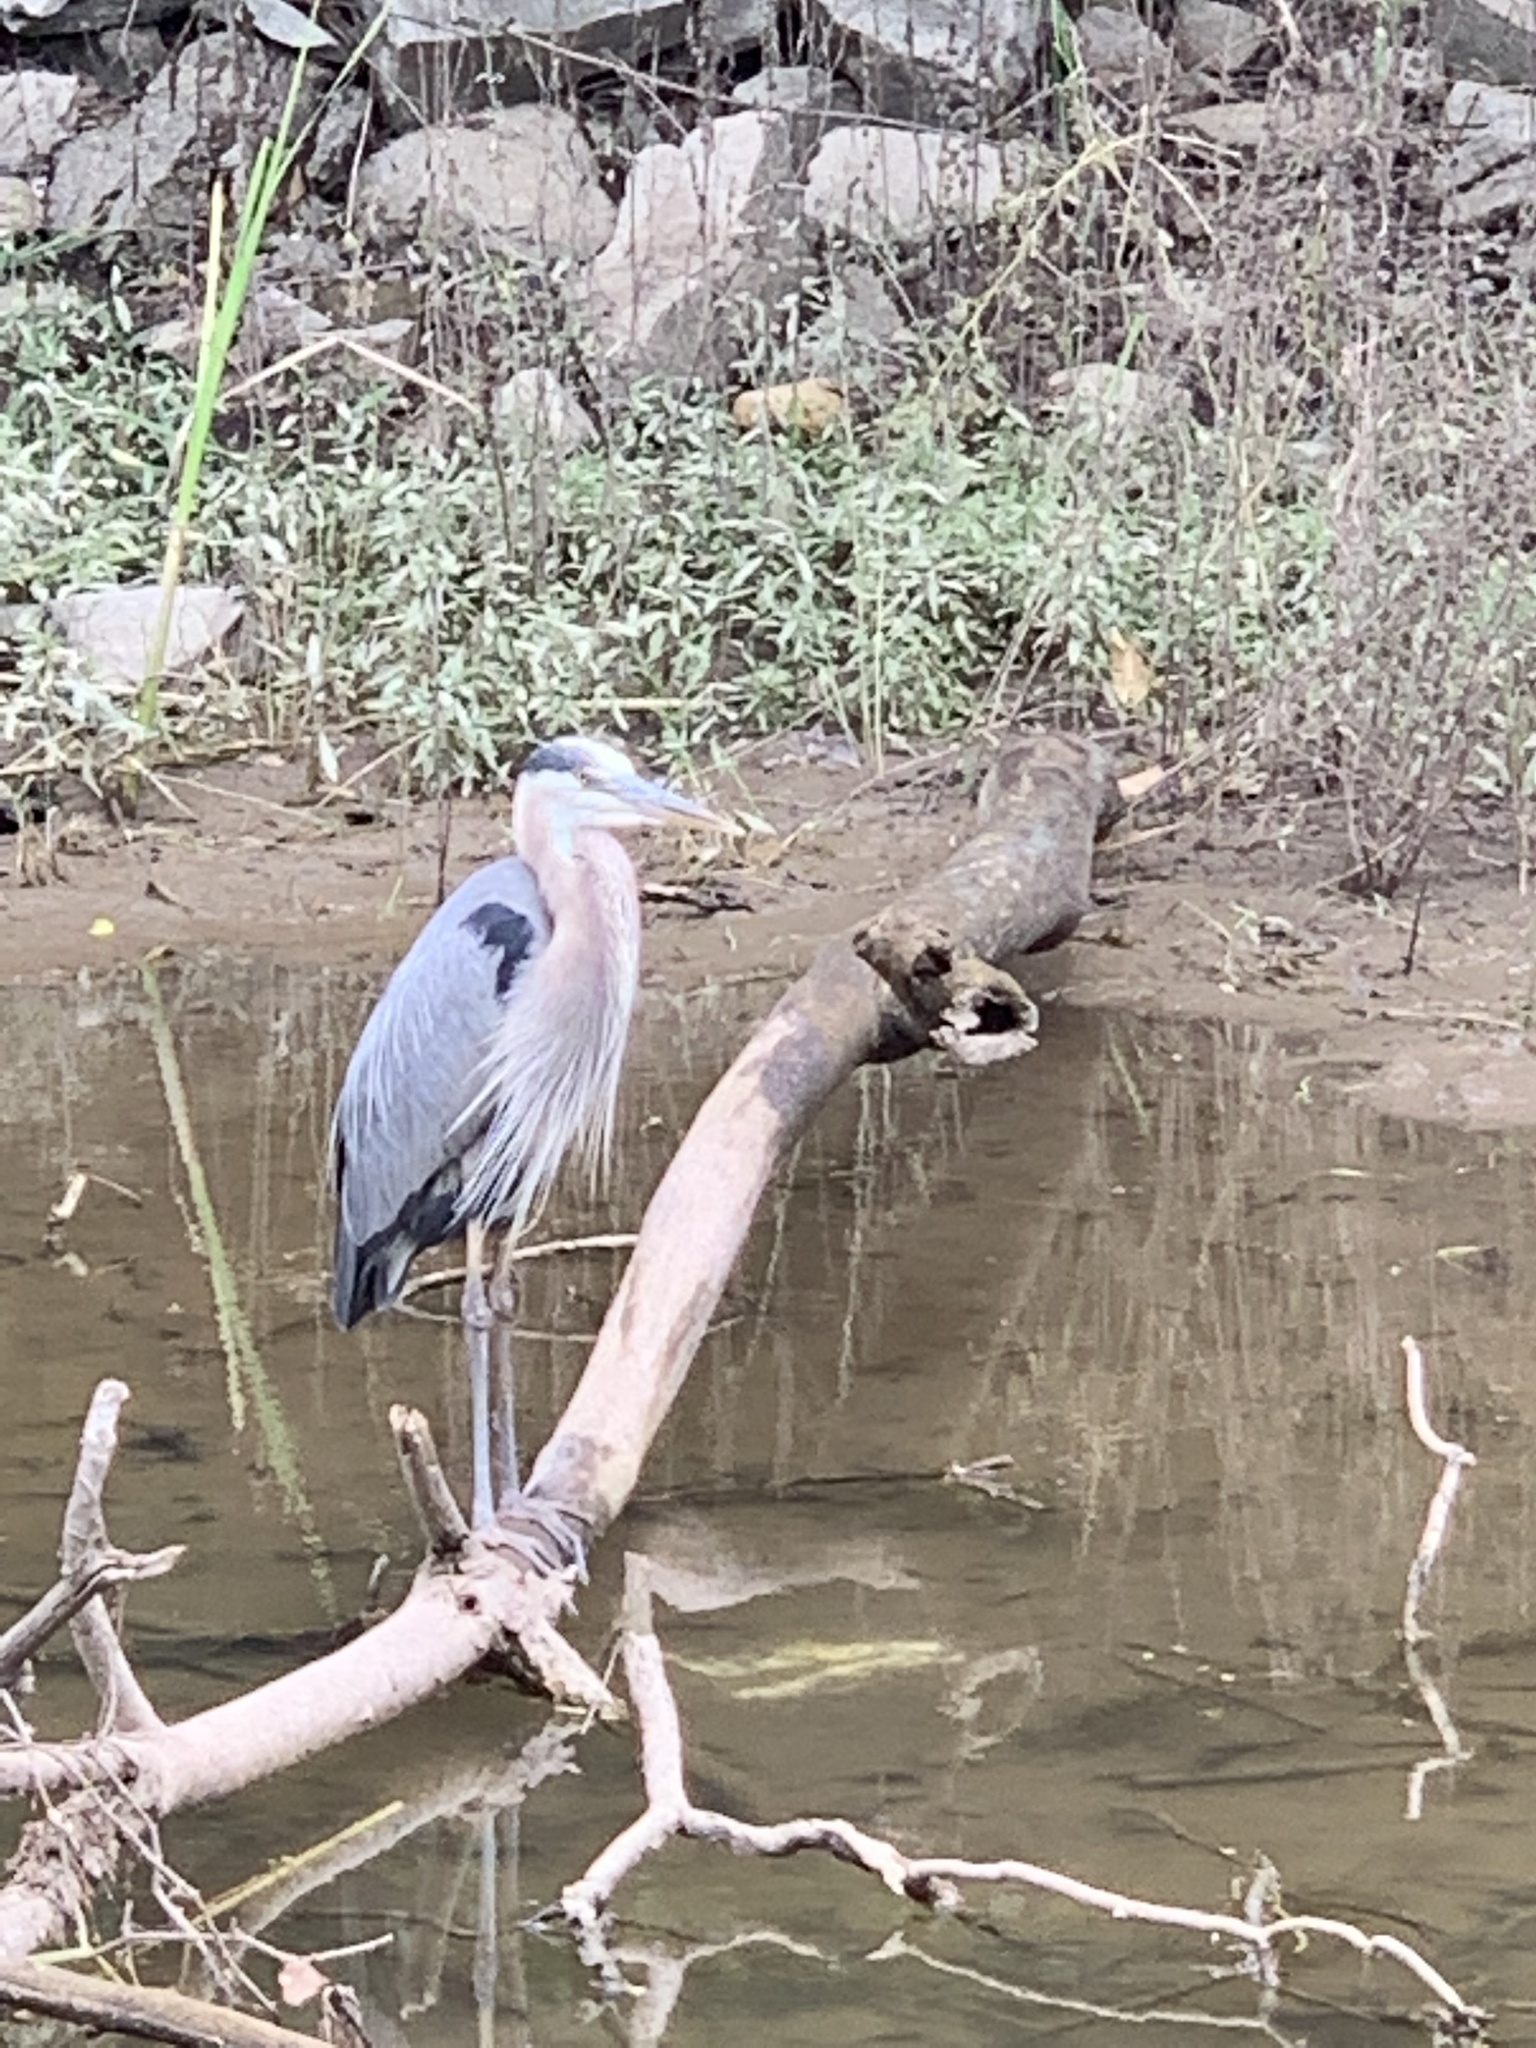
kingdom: Animalia
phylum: Chordata
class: Aves
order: Pelecaniformes
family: Ardeidae
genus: Ardea
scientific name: Ardea herodias
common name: Great blue heron
